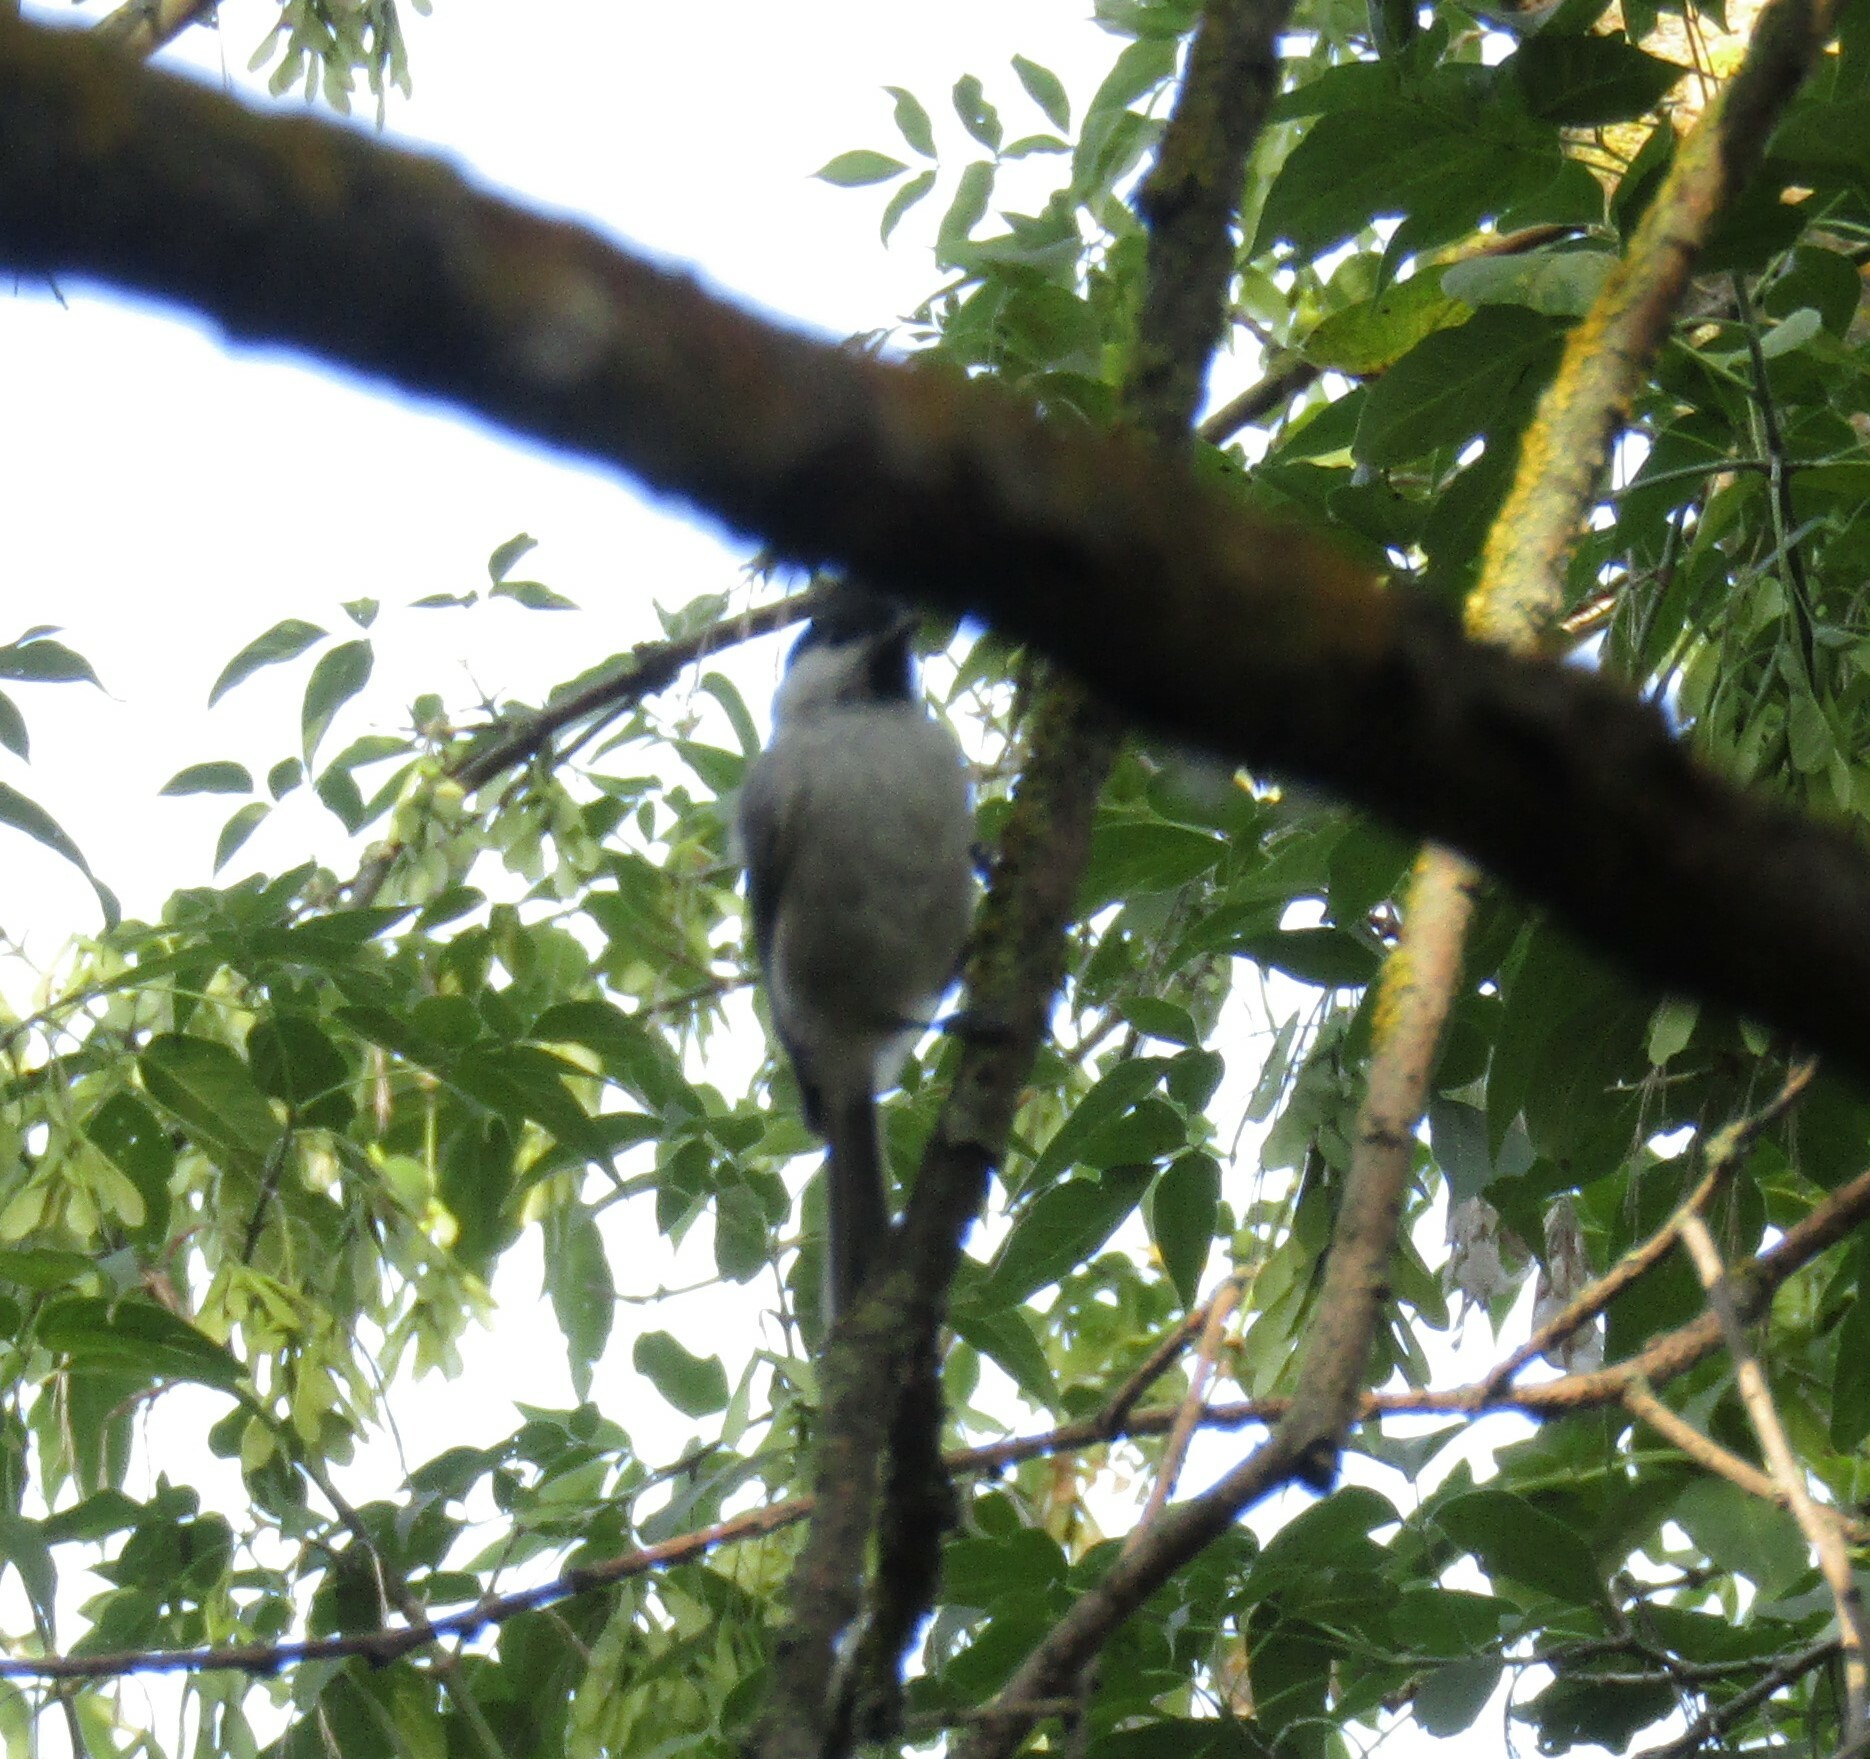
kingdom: Animalia
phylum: Chordata
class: Aves
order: Passeriformes
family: Paridae
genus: Poecile
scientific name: Poecile palustris
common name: Marsh tit
